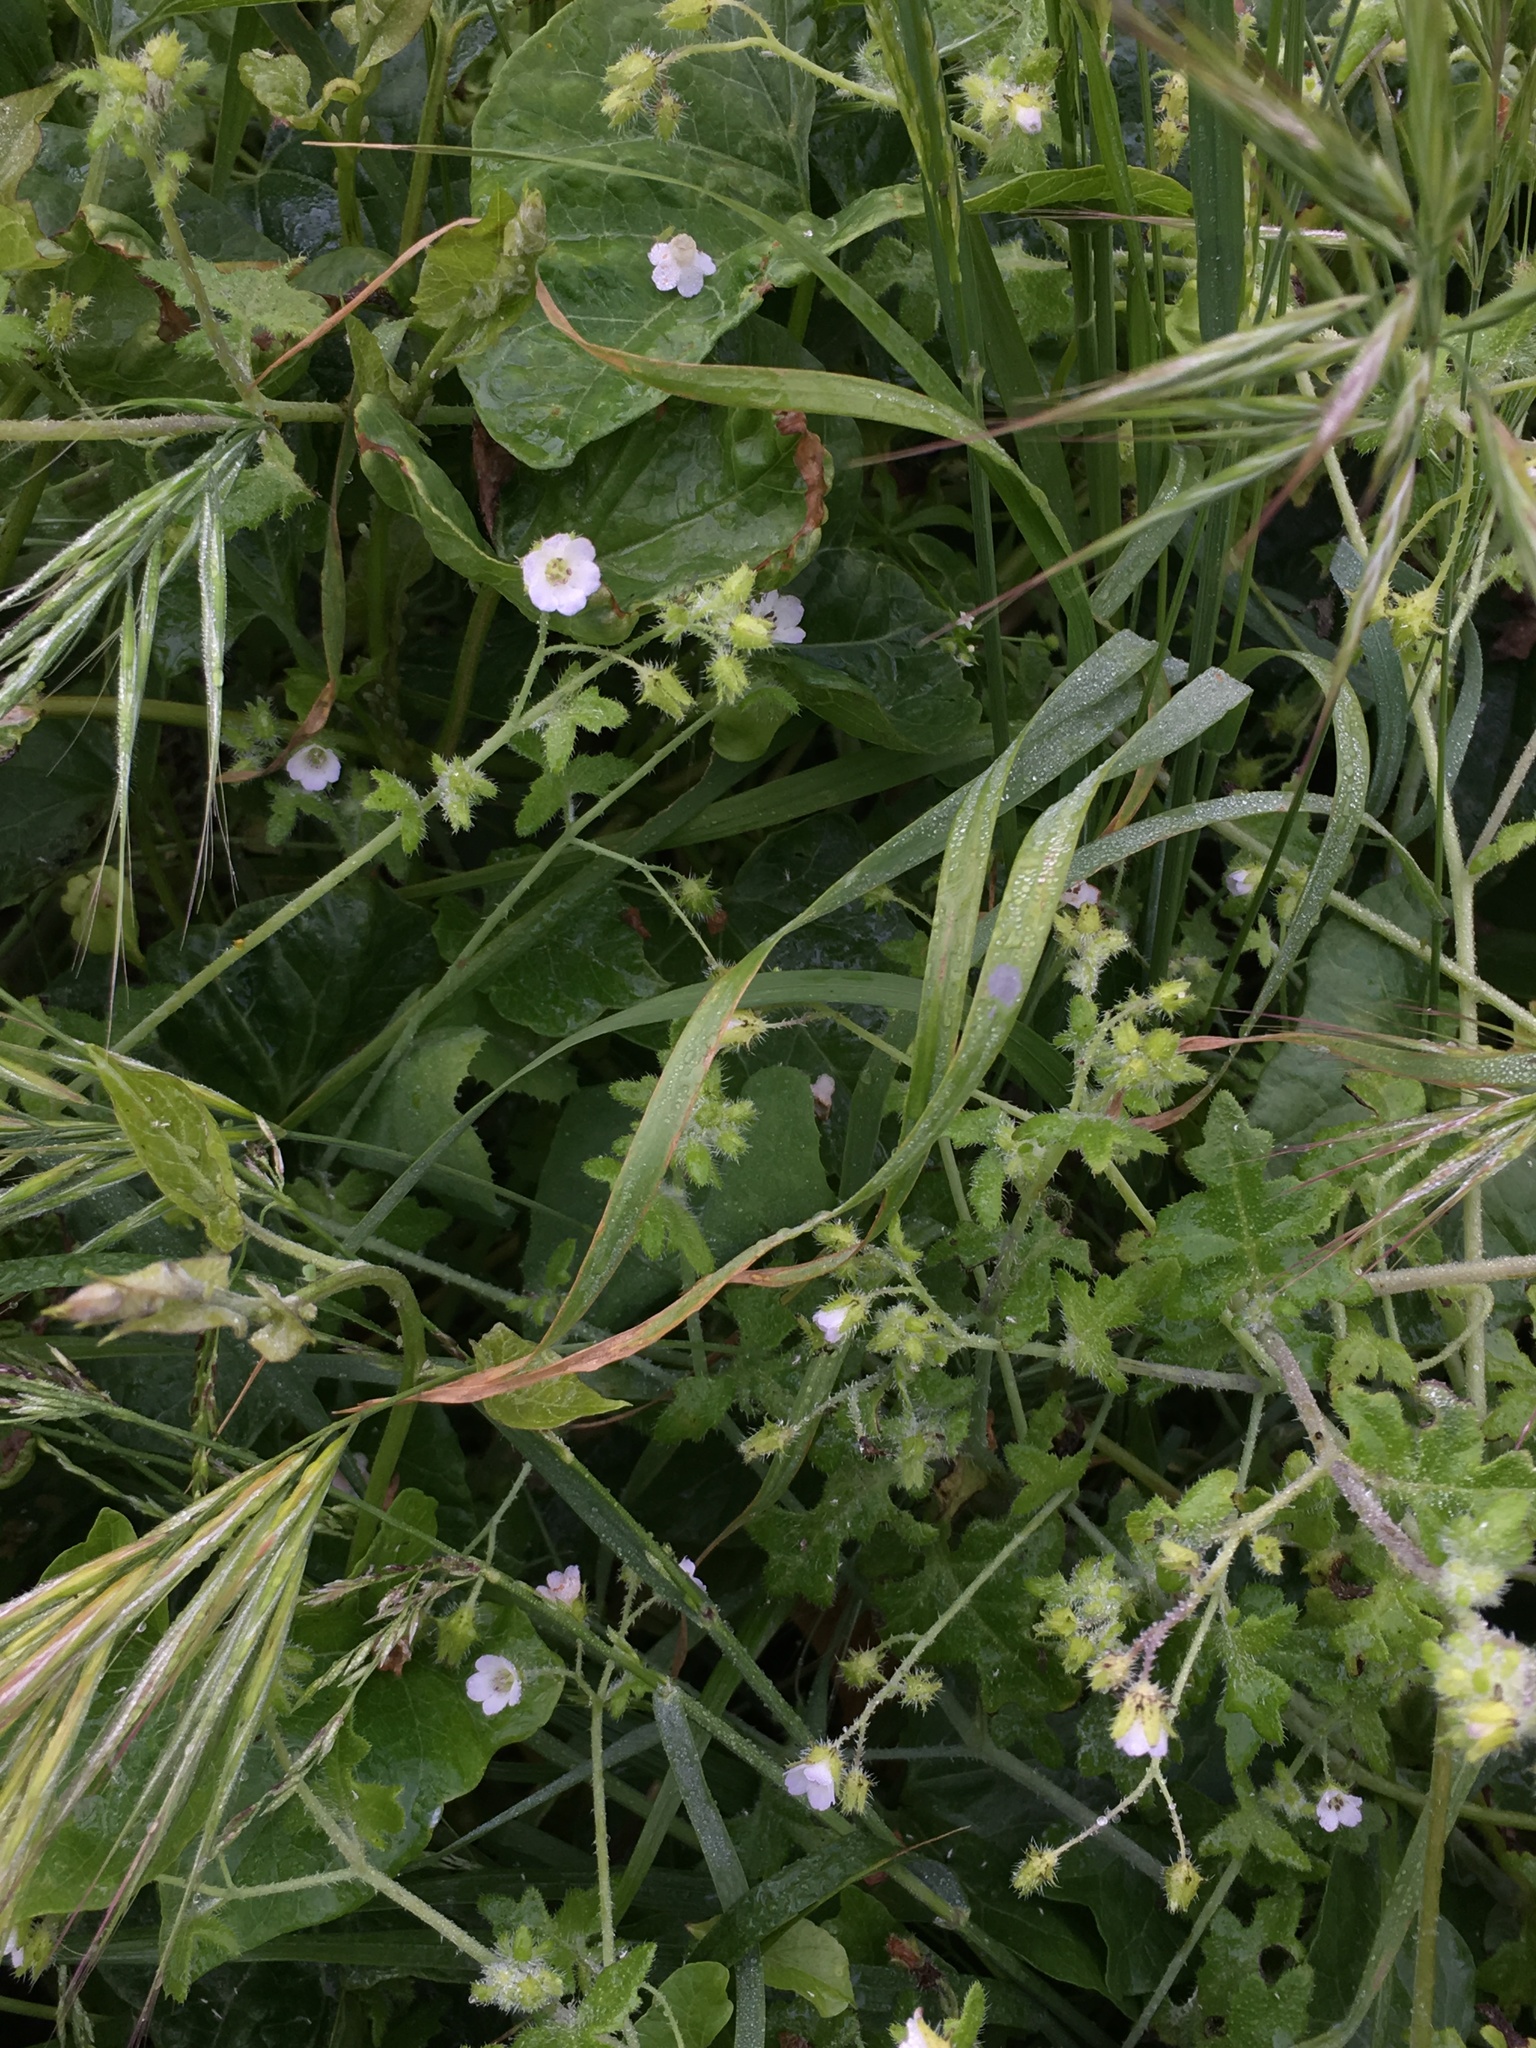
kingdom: Plantae
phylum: Tracheophyta
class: Magnoliopsida
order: Boraginales
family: Hydrophyllaceae
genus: Pholistoma
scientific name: Pholistoma racemosum
